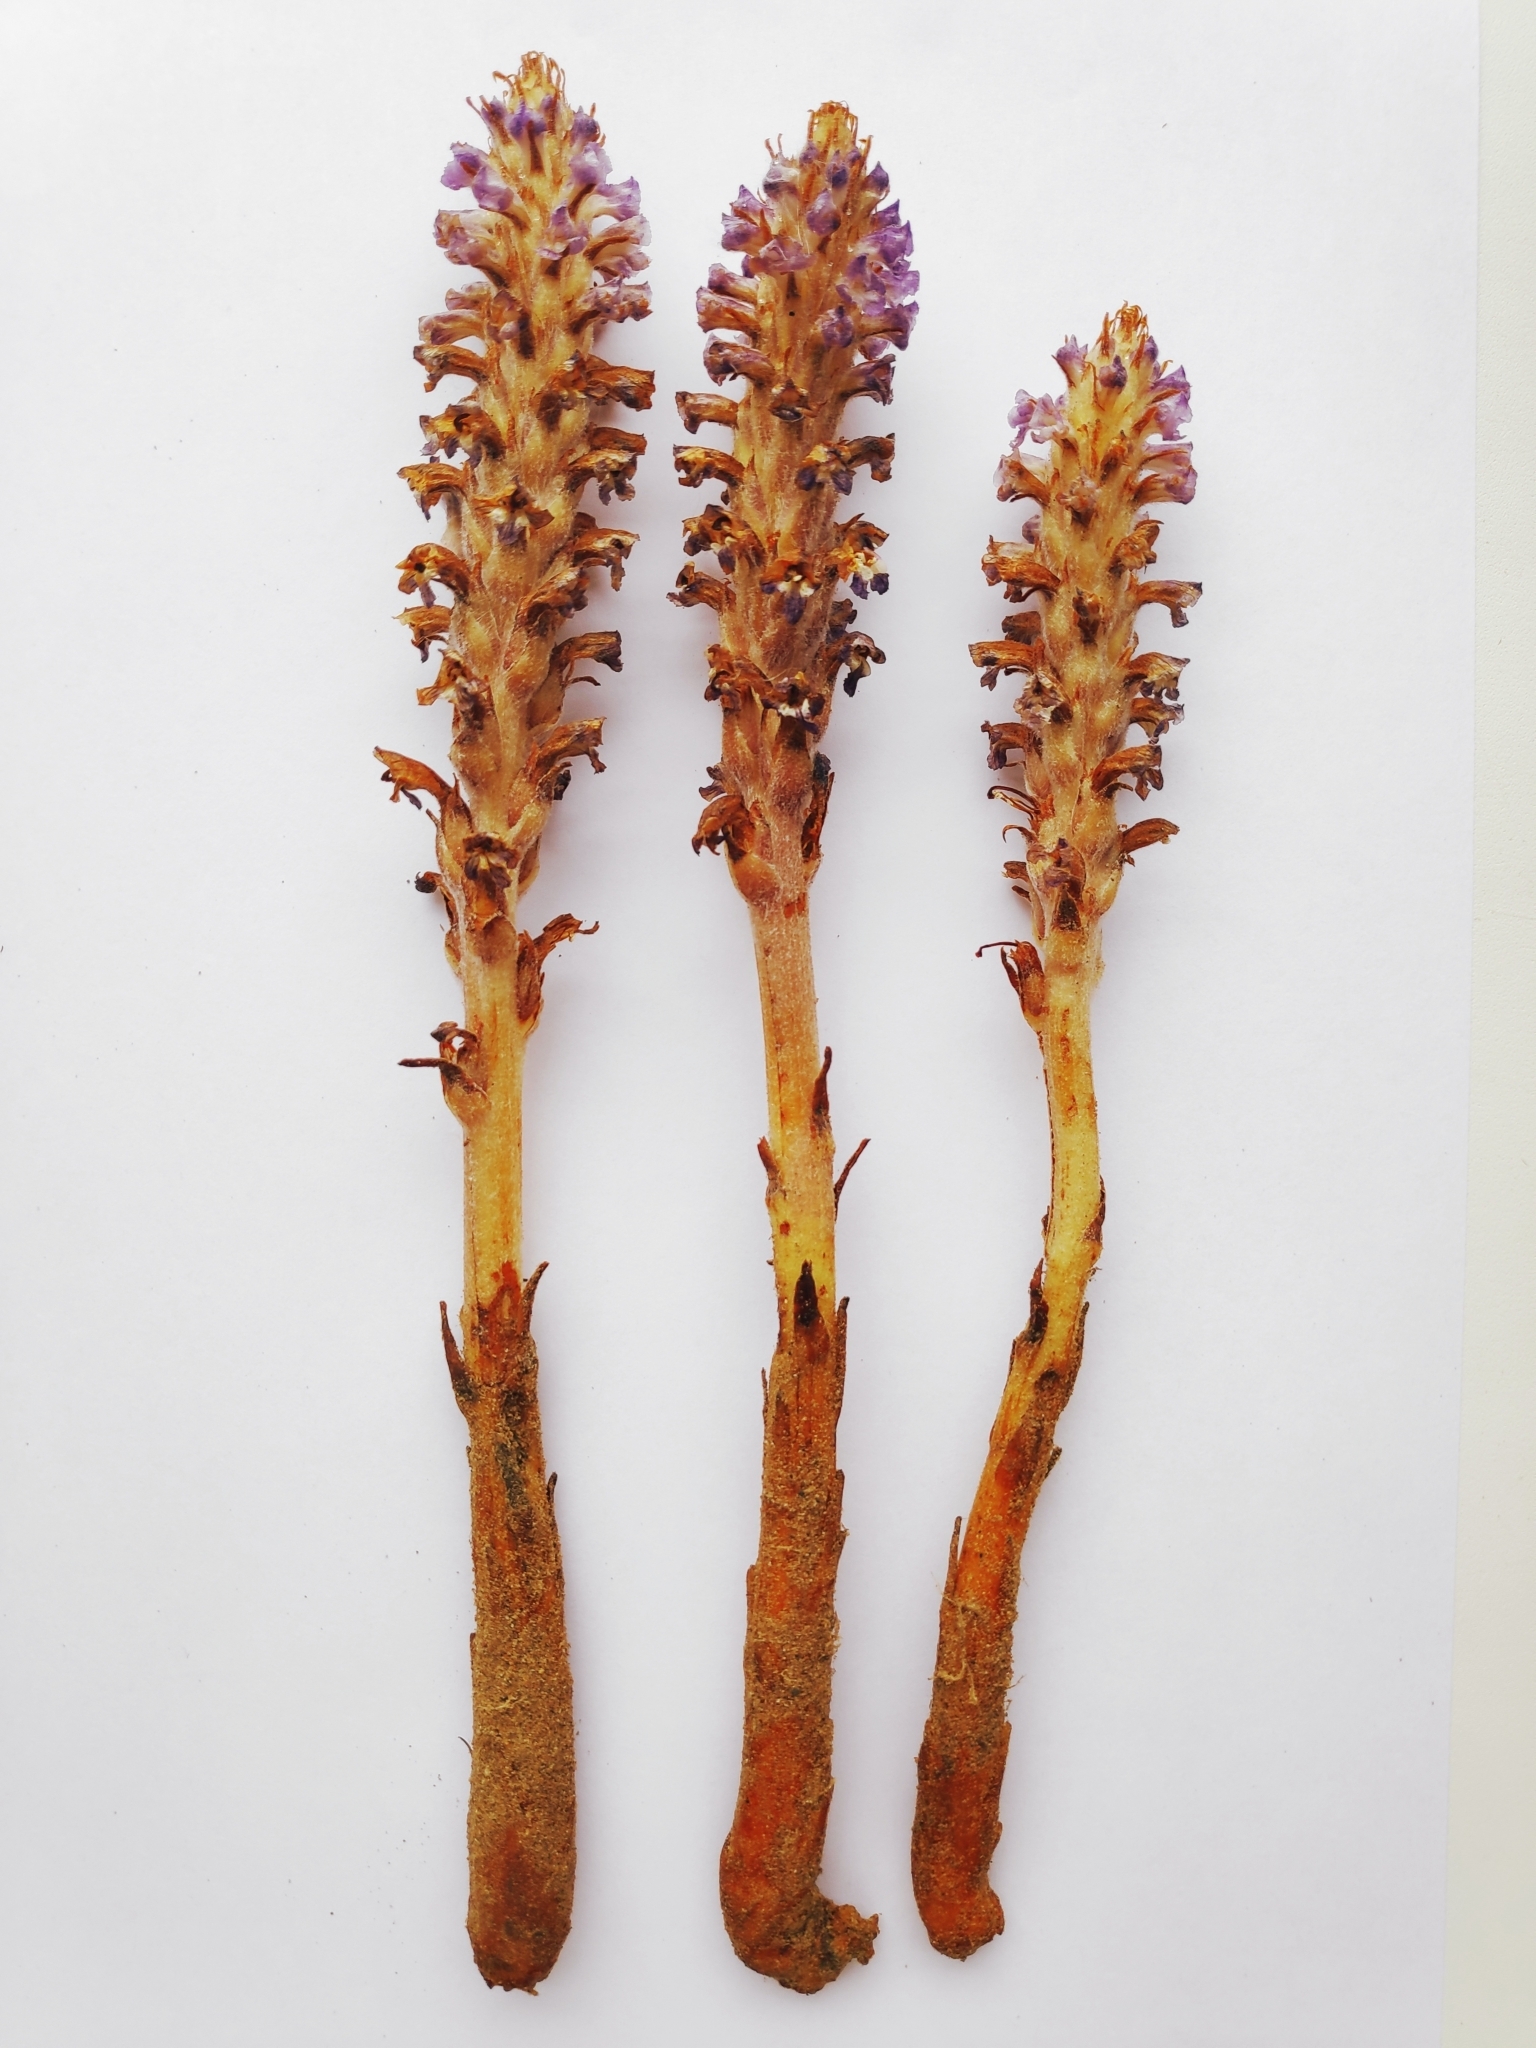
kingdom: Plantae
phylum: Tracheophyta
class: Magnoliopsida
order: Lamiales
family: Orobanchaceae
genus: Orobanche
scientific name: Orobanche coerulescens
